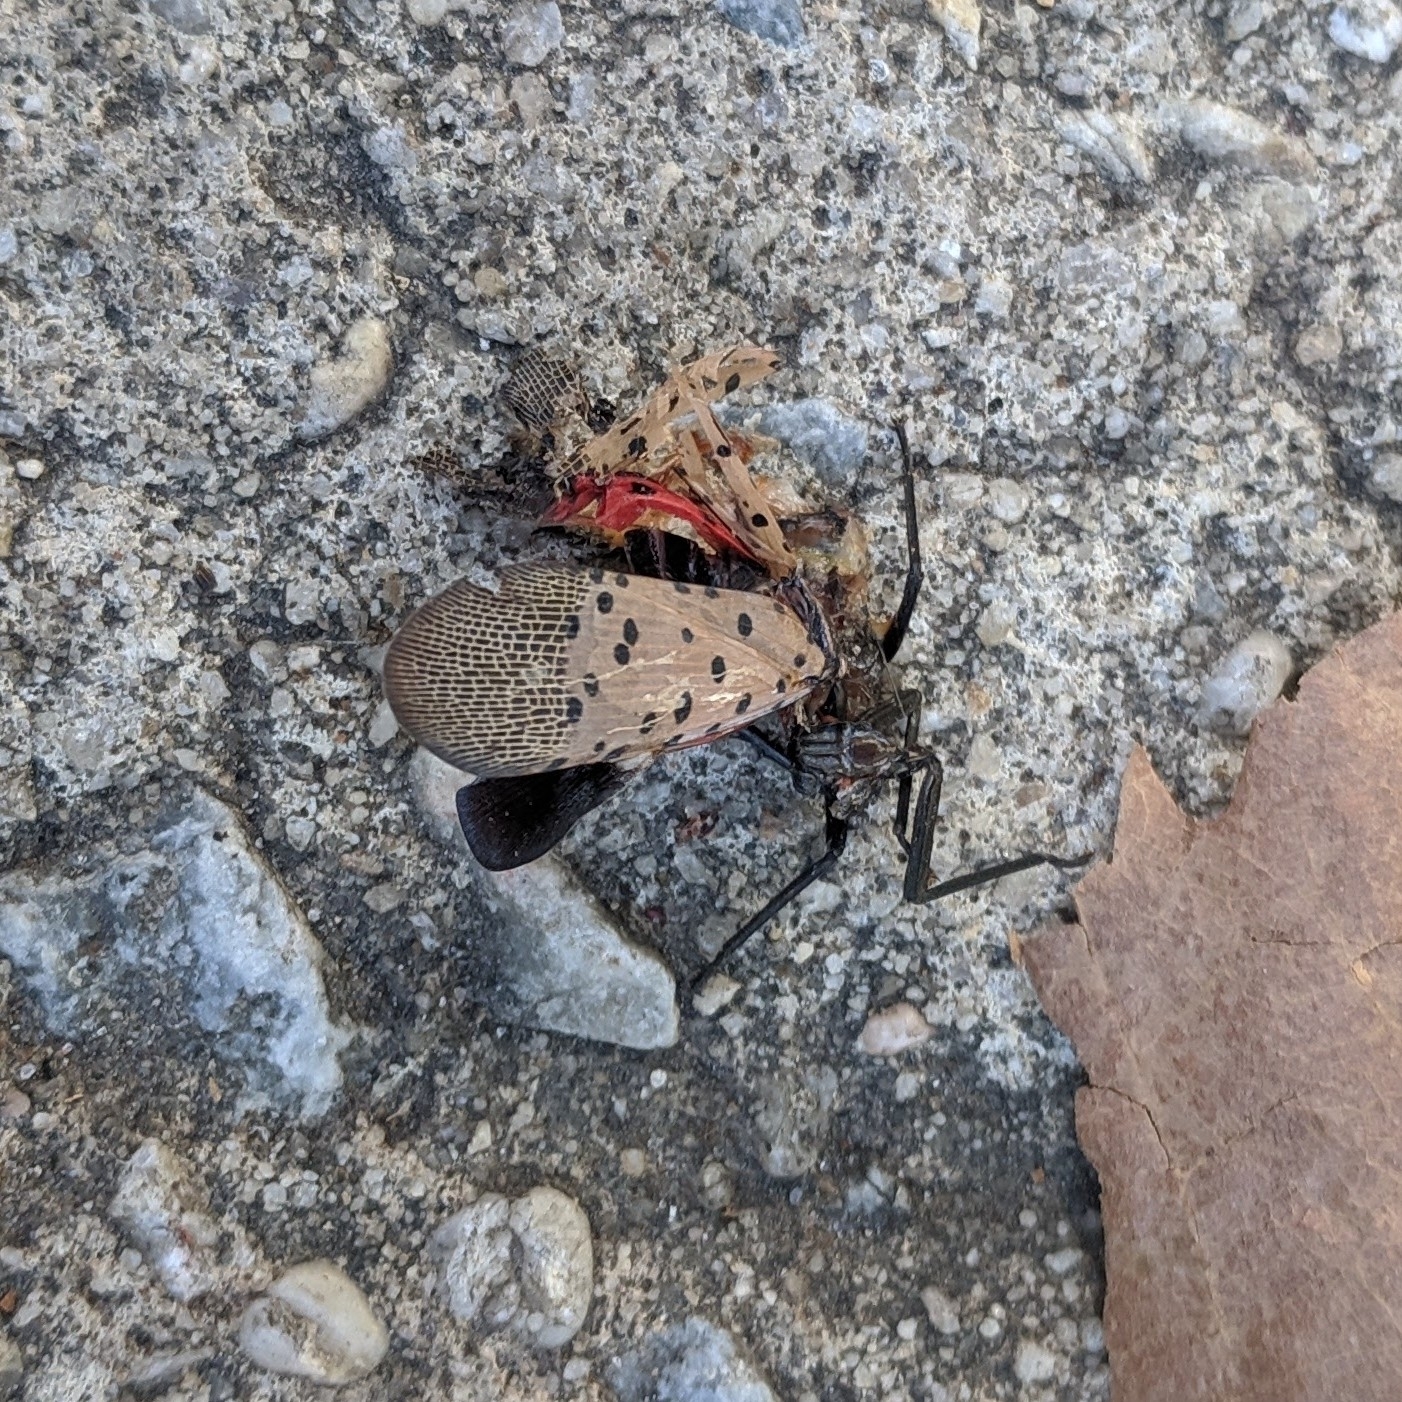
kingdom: Animalia
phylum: Arthropoda
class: Insecta
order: Hemiptera
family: Fulgoridae
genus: Lycorma
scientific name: Lycorma delicatula
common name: Spotted lanternfly
